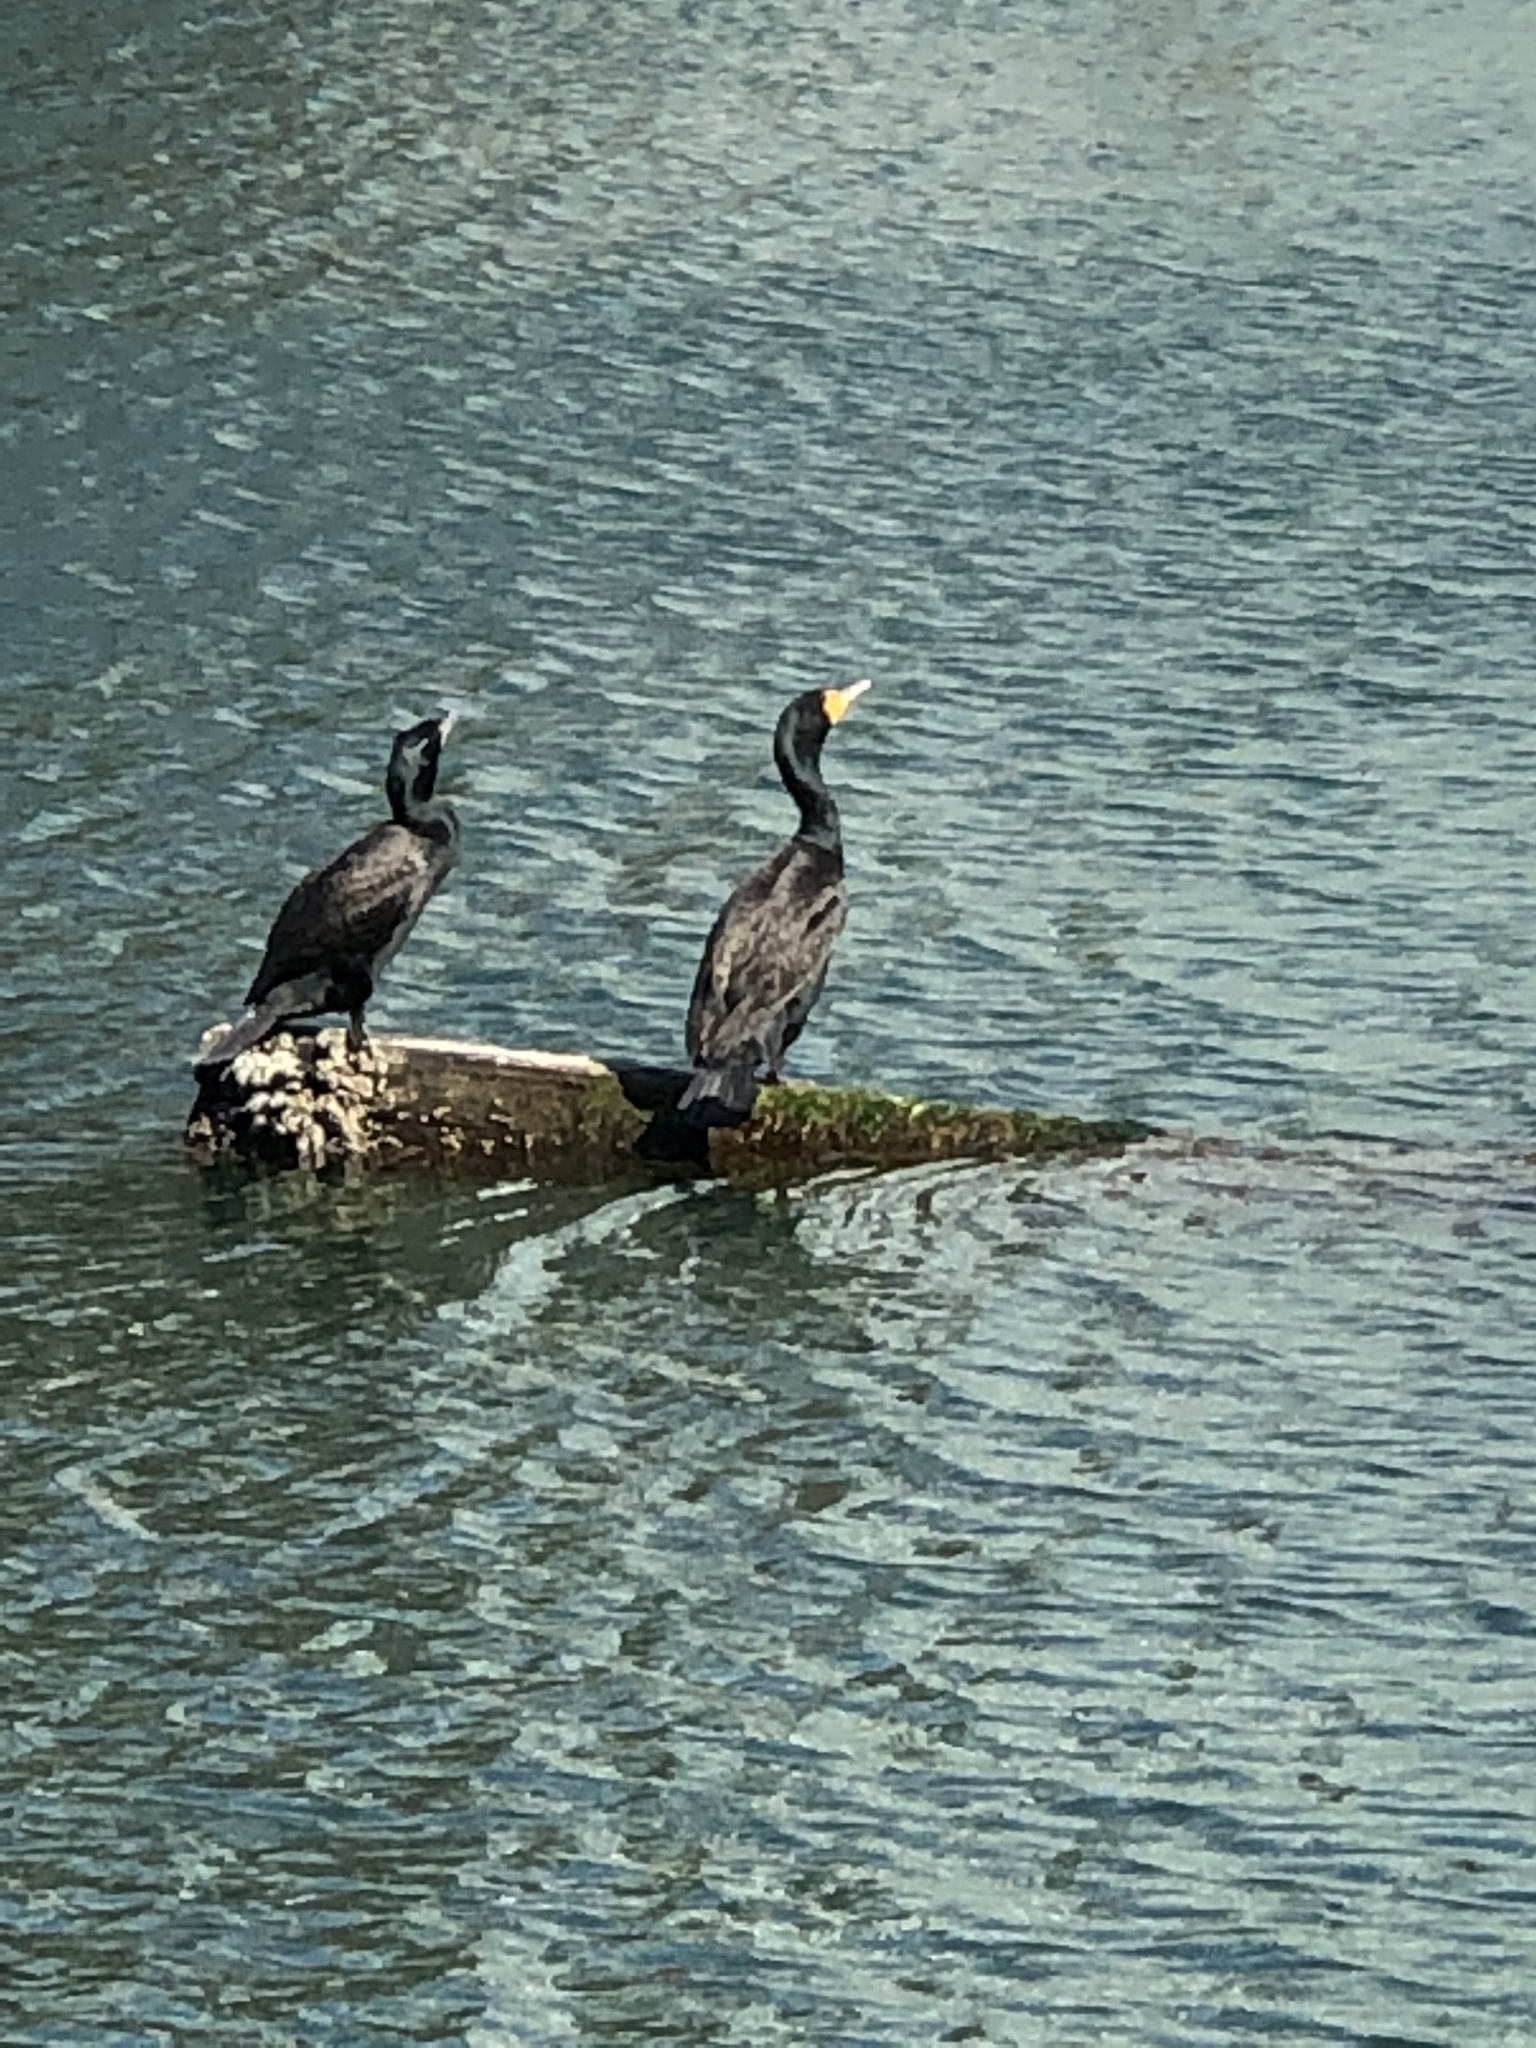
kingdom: Animalia
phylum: Chordata
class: Aves
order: Suliformes
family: Phalacrocoracidae
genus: Phalacrocorax
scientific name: Phalacrocorax auritus
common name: Double-crested cormorant
